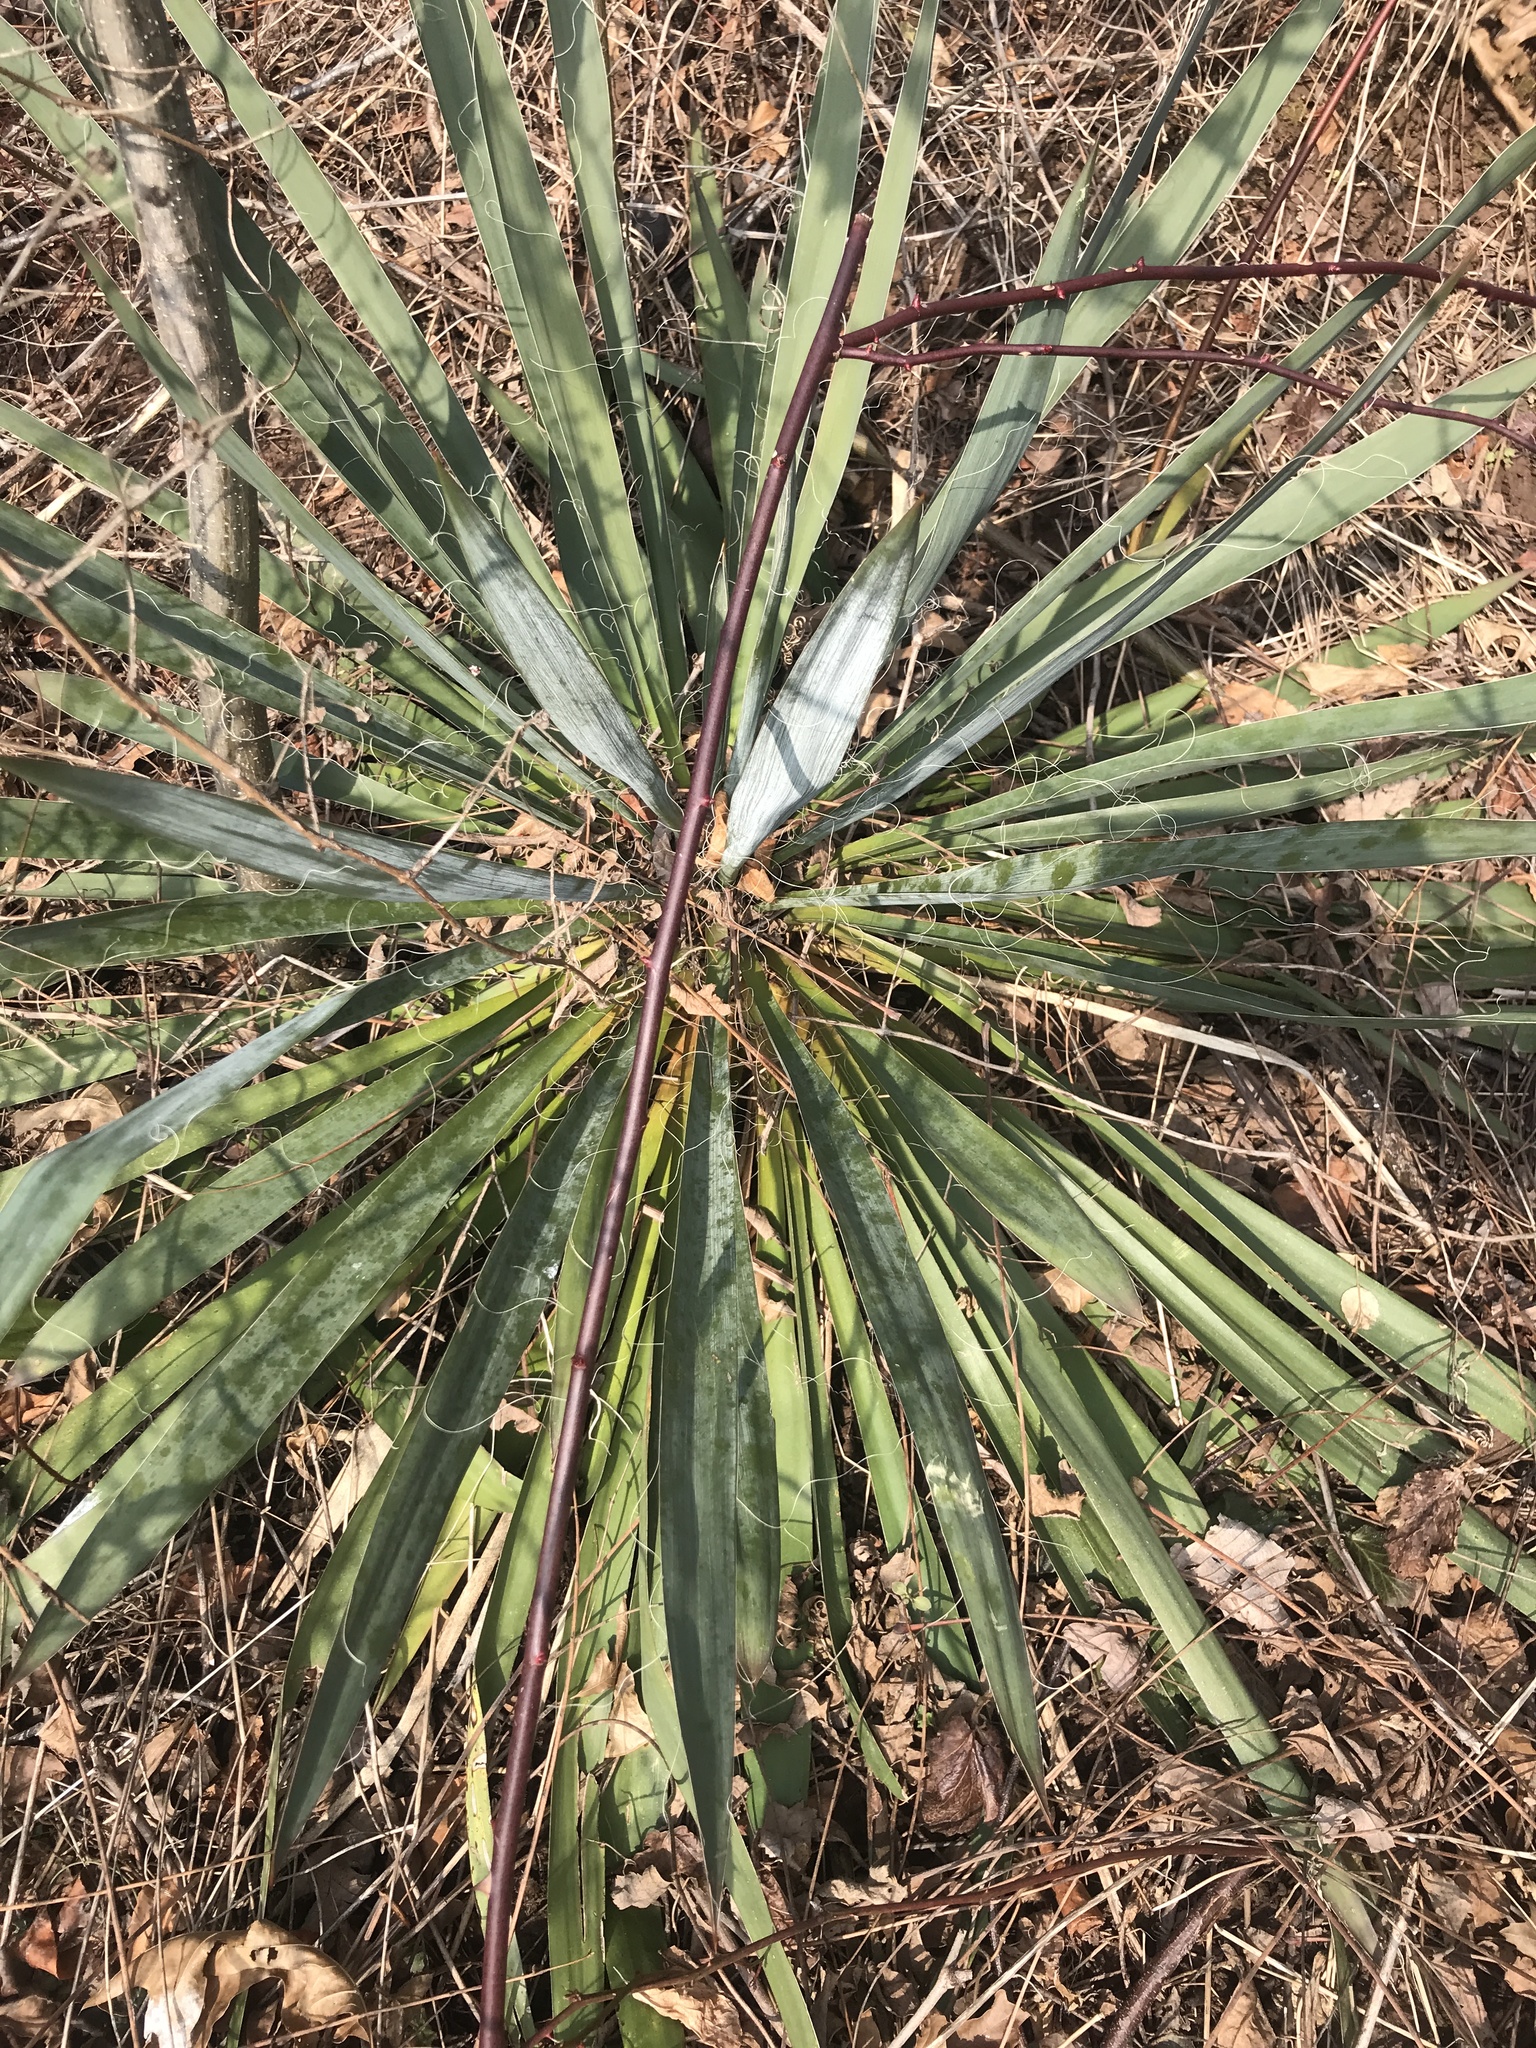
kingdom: Plantae
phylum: Tracheophyta
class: Liliopsida
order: Asparagales
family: Asparagaceae
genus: Yucca
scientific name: Yucca filamentosa
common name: Adam's-needle
